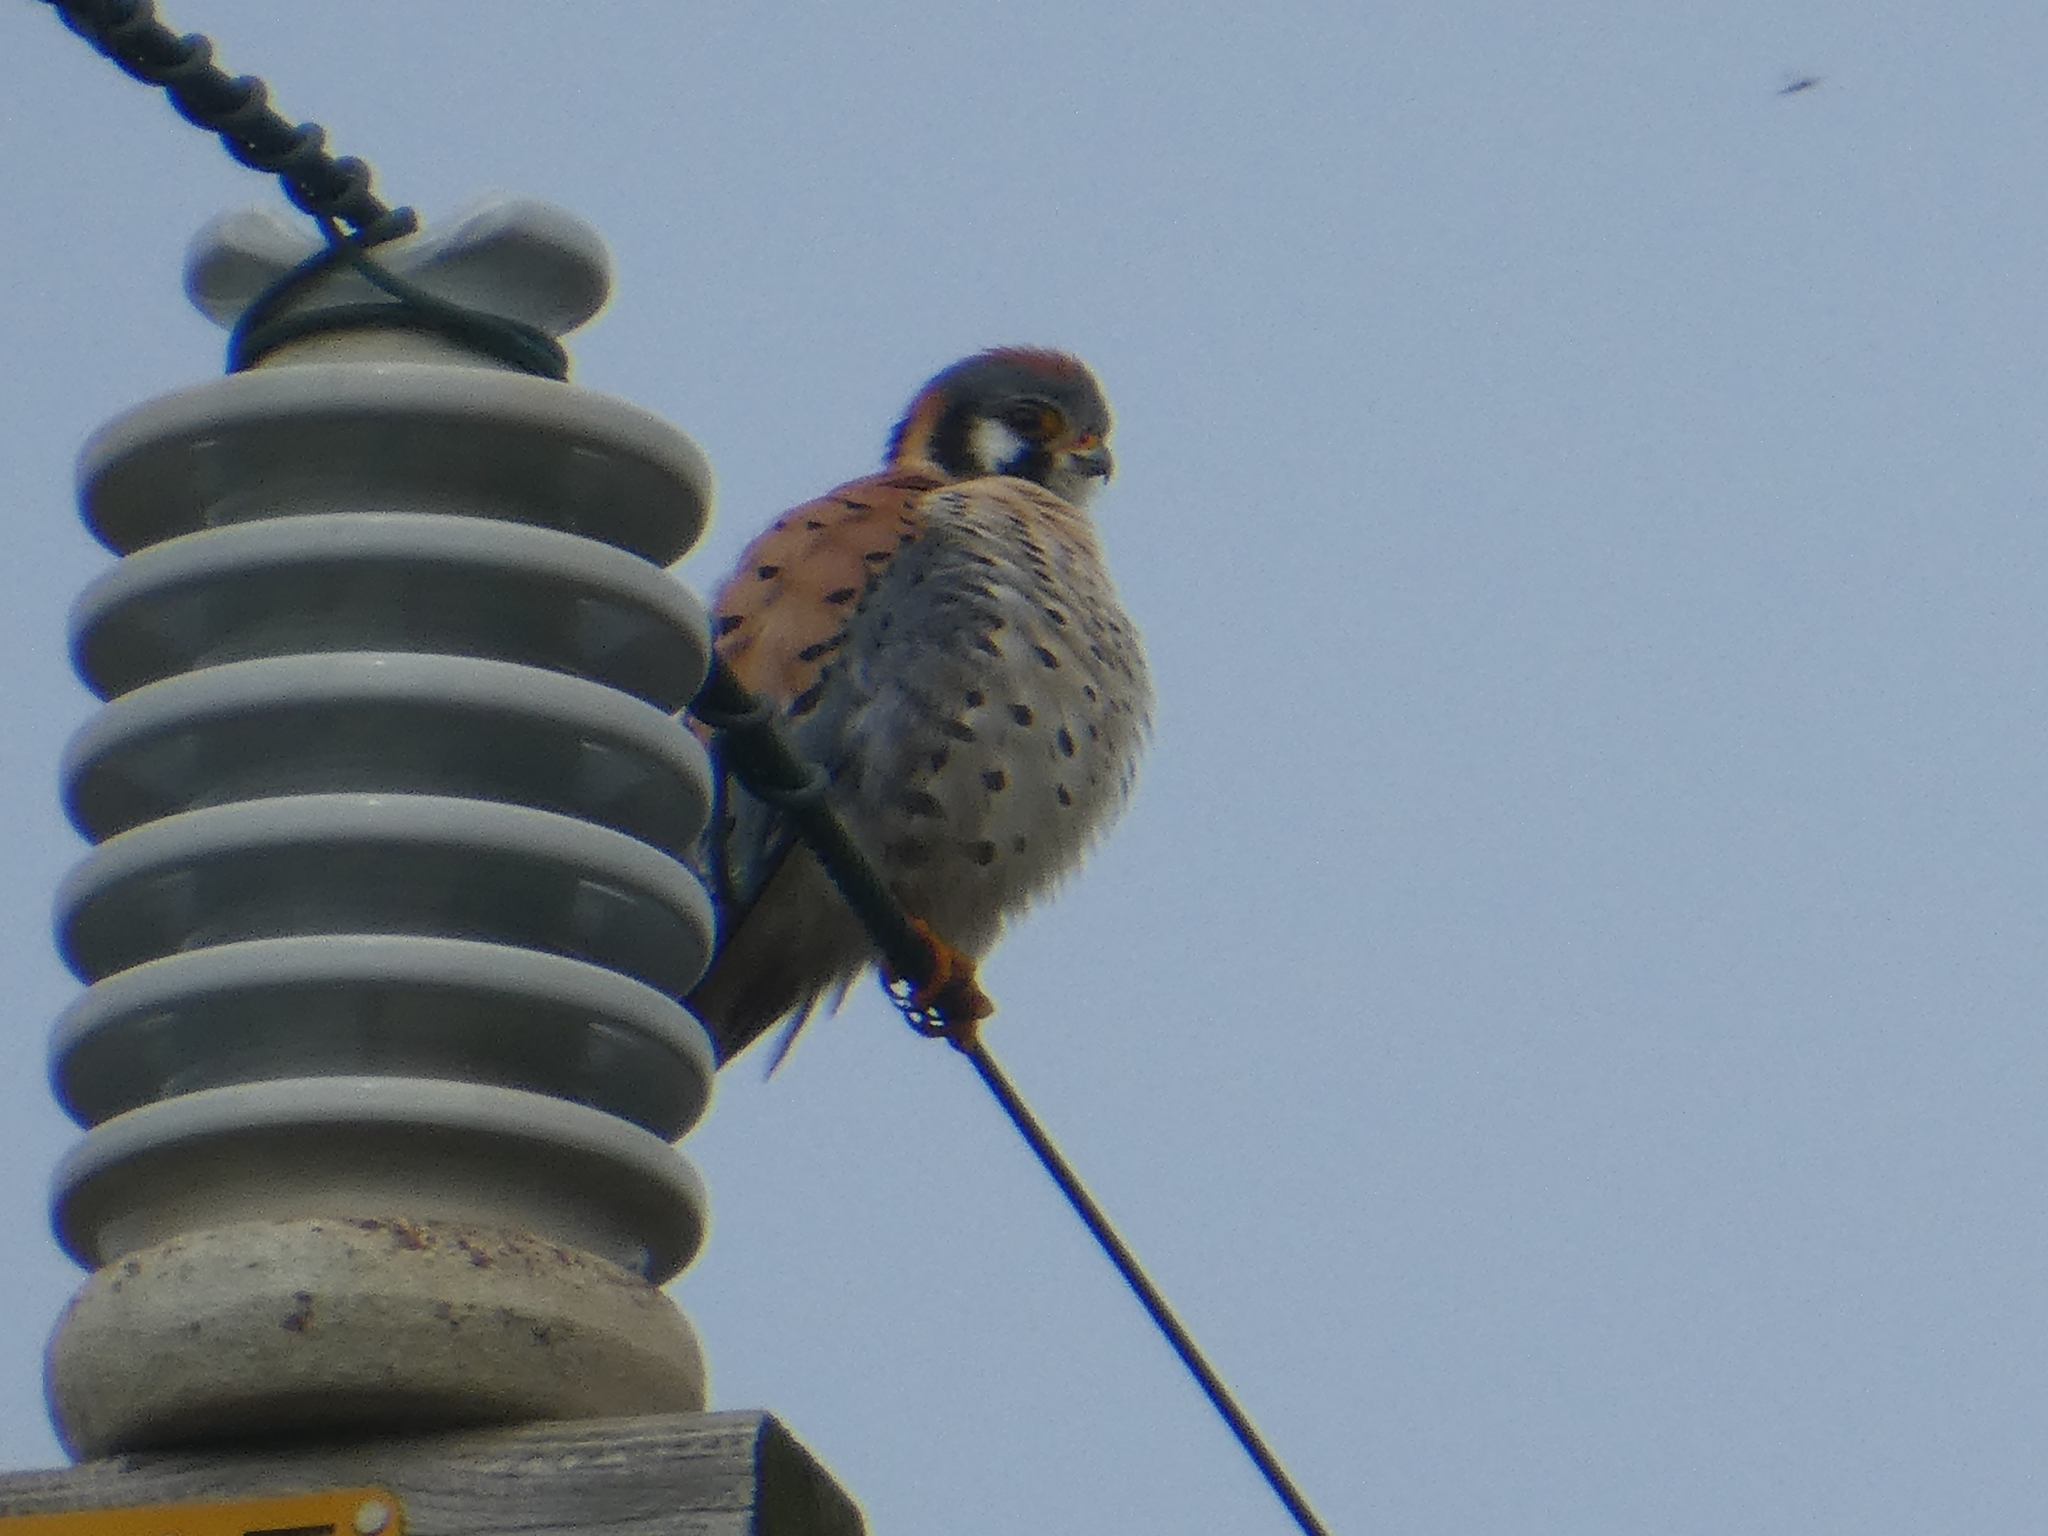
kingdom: Animalia
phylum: Chordata
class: Aves
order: Falconiformes
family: Falconidae
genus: Falco
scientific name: Falco sparverius
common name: American kestrel
